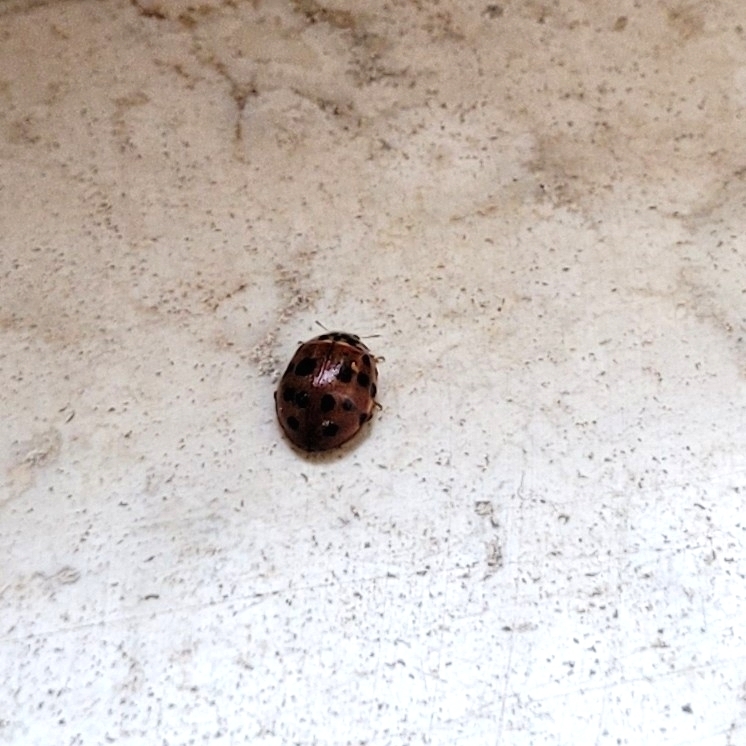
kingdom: Animalia
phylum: Arthropoda
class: Insecta
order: Coleoptera
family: Coccinellidae
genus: Harmonia
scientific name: Harmonia quadripunctata
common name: Cream-streaked ladybird
